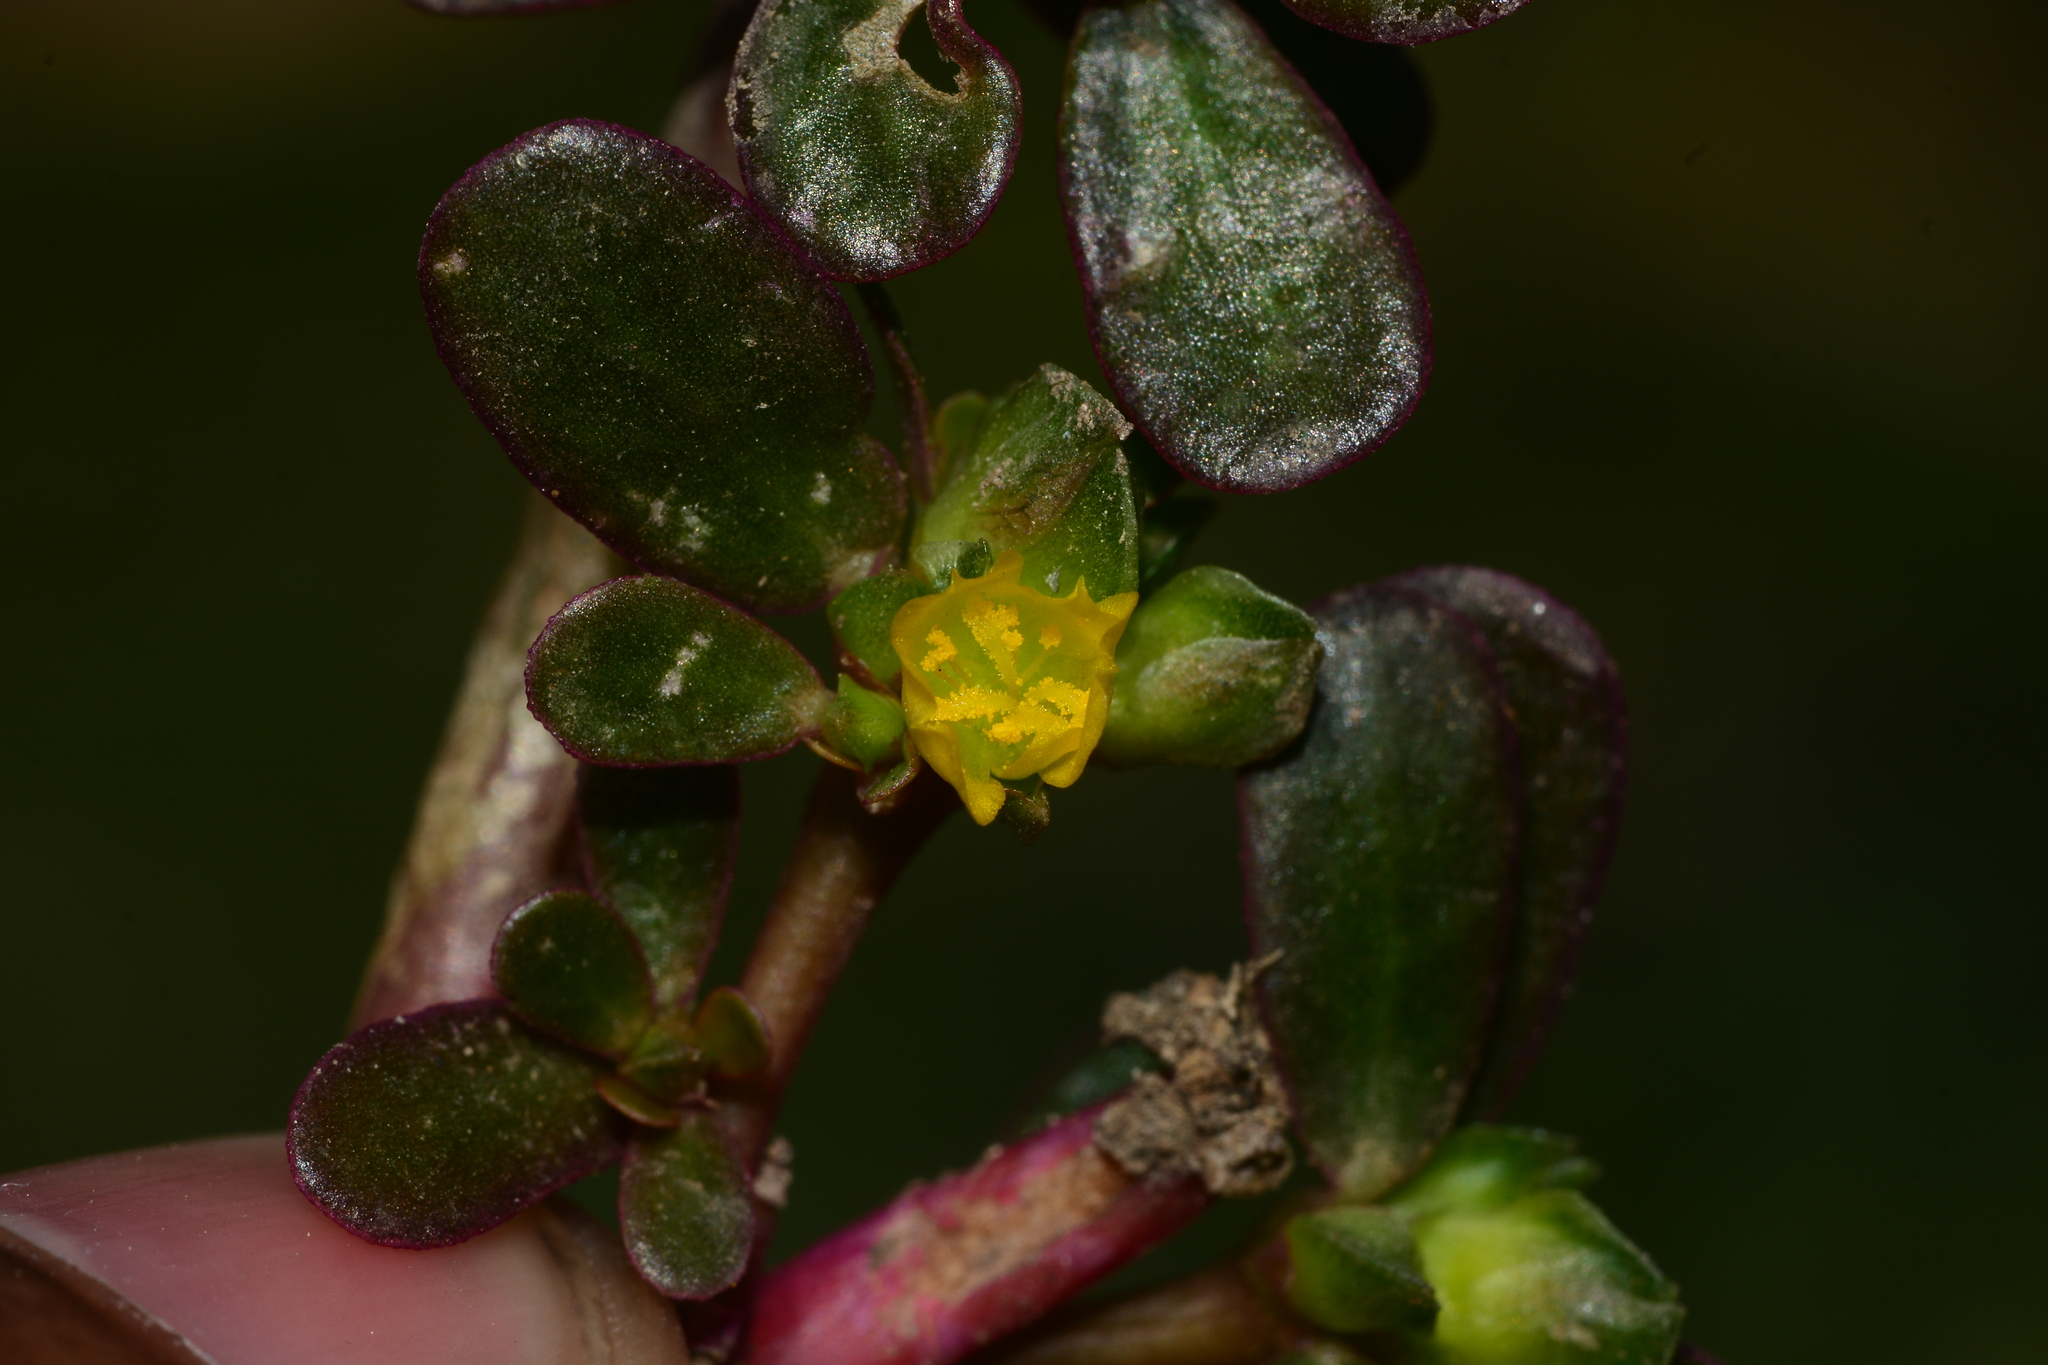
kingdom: Plantae
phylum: Tracheophyta
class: Magnoliopsida
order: Caryophyllales
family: Portulacaceae
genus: Portulaca
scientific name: Portulaca oleracea
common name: Common purslane
